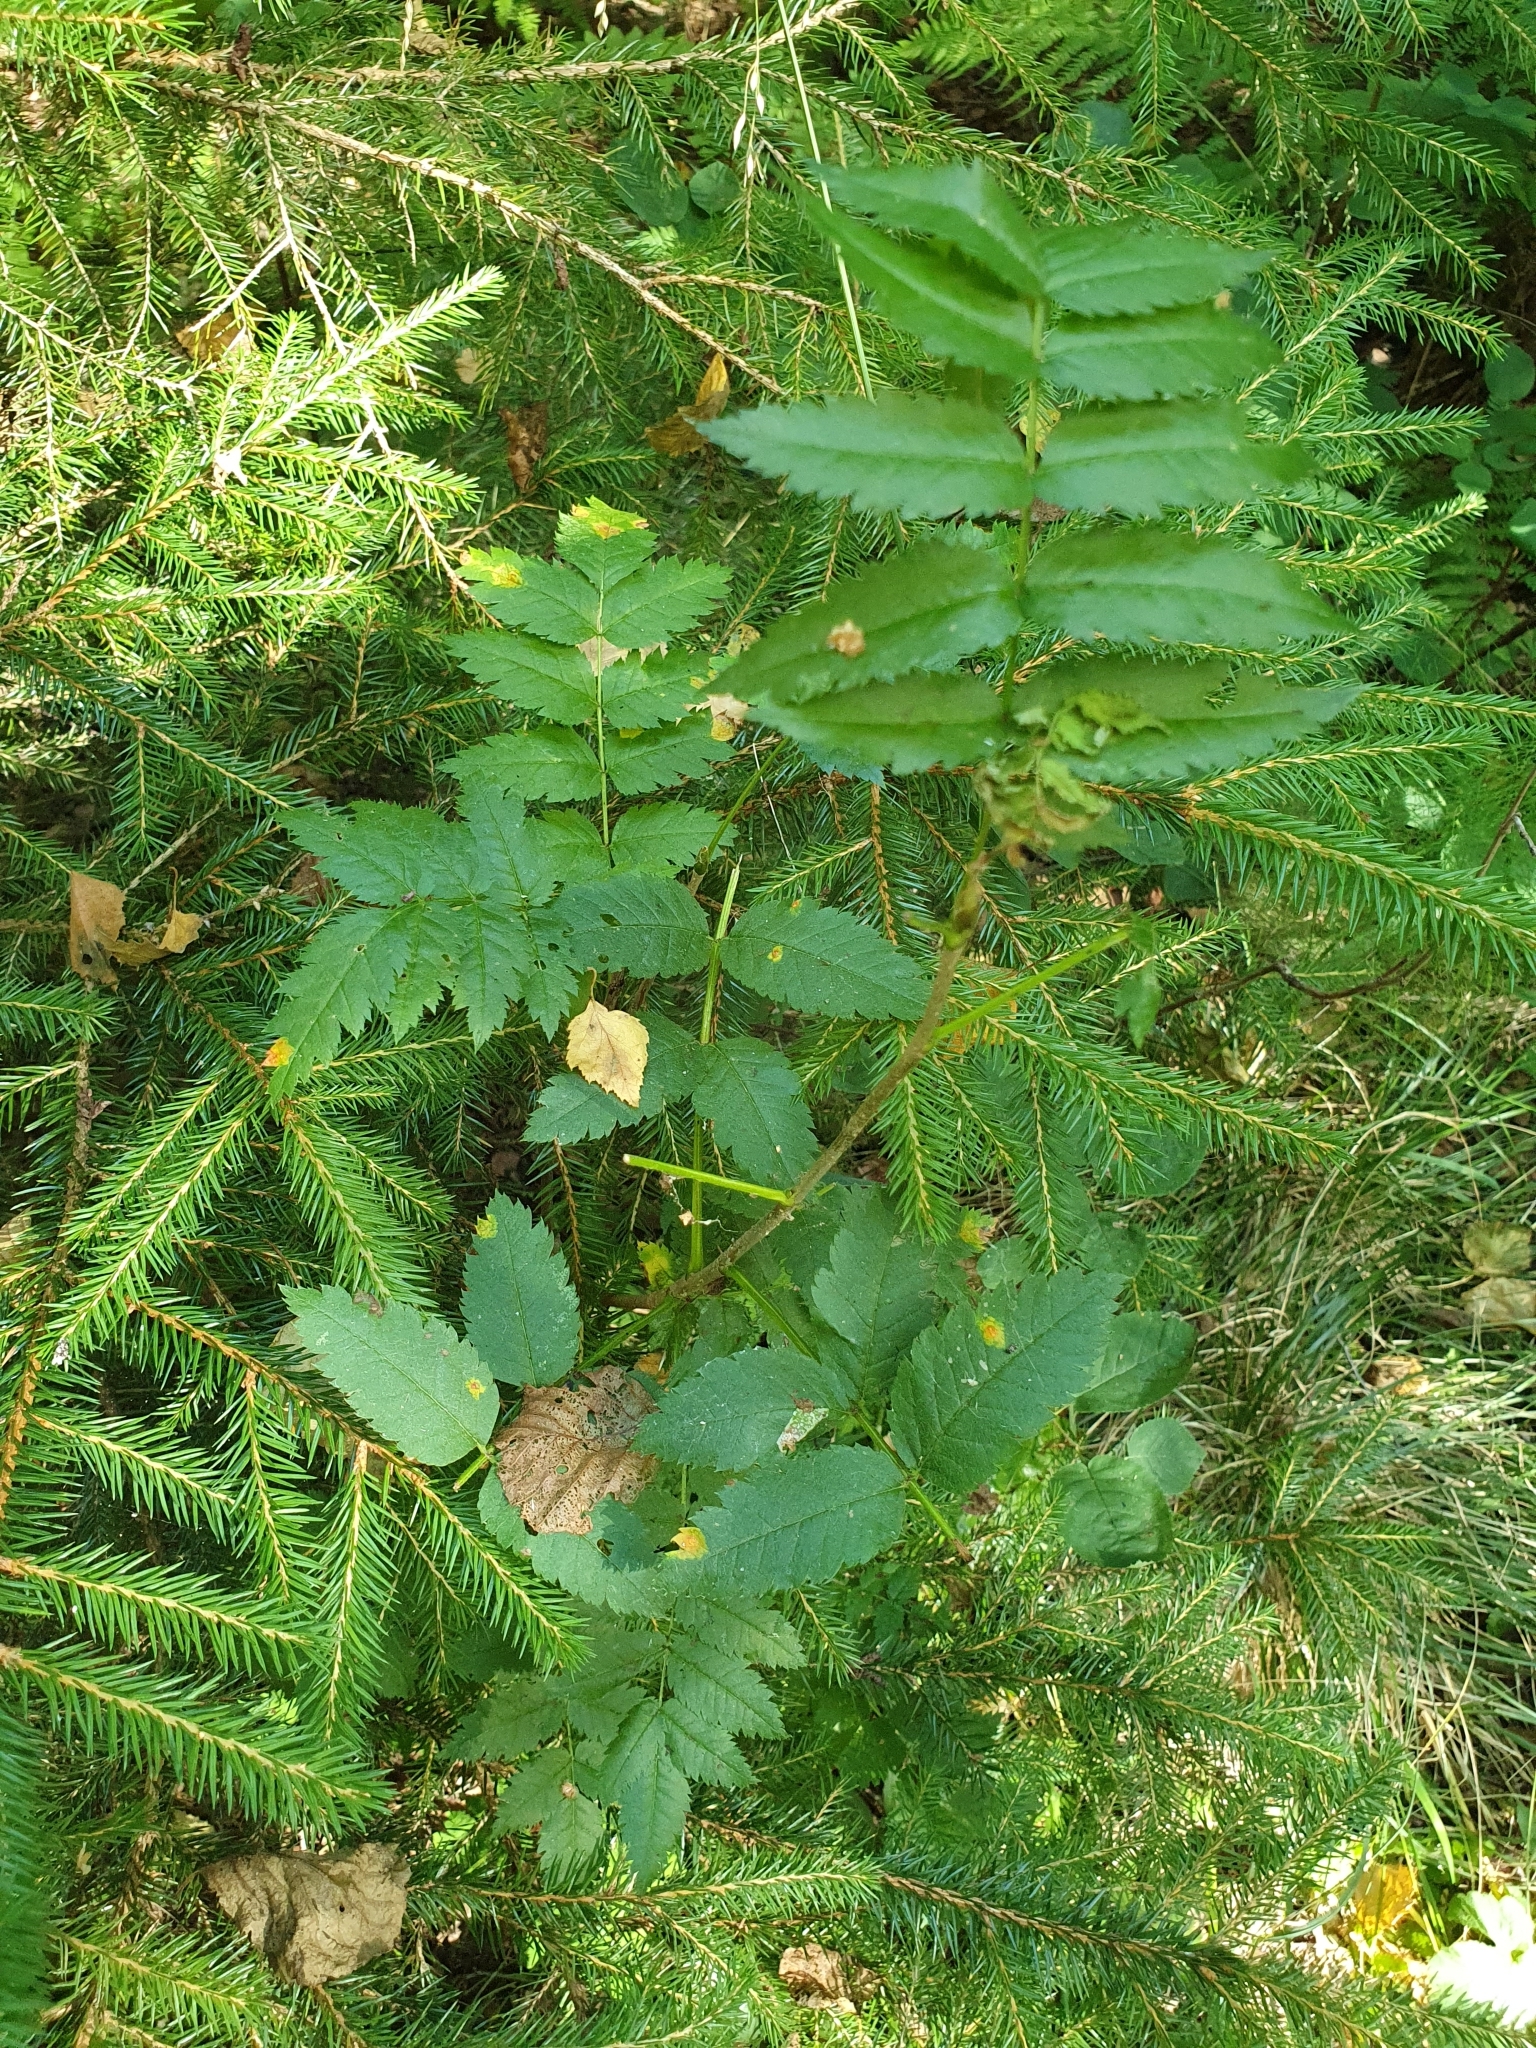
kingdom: Plantae
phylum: Tracheophyta
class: Magnoliopsida
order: Rosales
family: Rosaceae
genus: Sorbus
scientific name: Sorbus aucuparia
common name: Rowan
